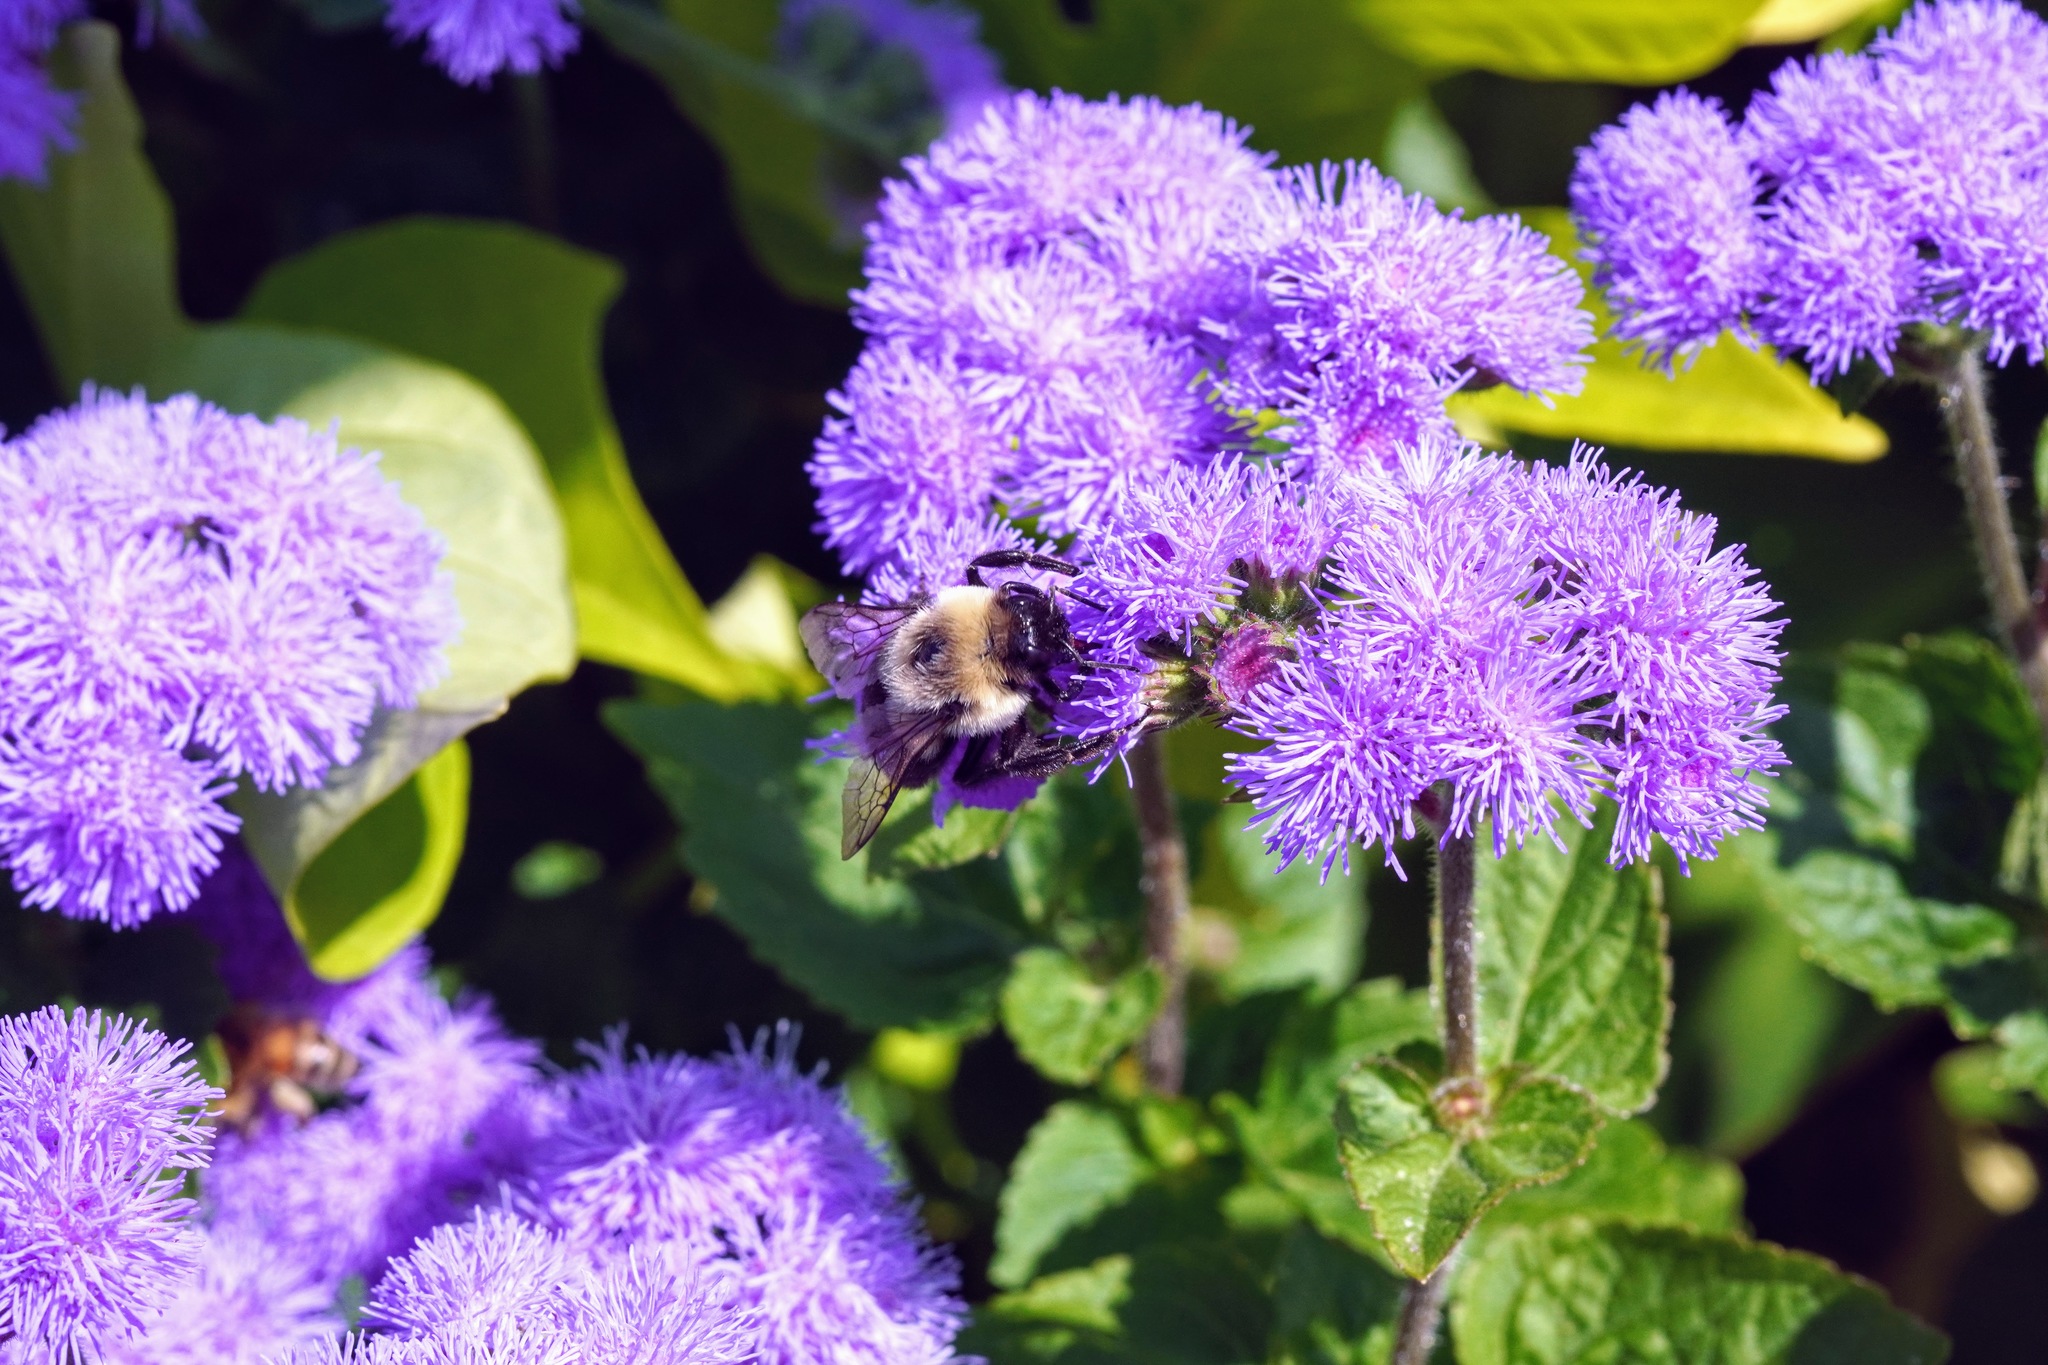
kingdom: Animalia
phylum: Arthropoda
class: Insecta
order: Hymenoptera
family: Apidae
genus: Bombus
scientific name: Bombus impatiens
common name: Common eastern bumble bee
